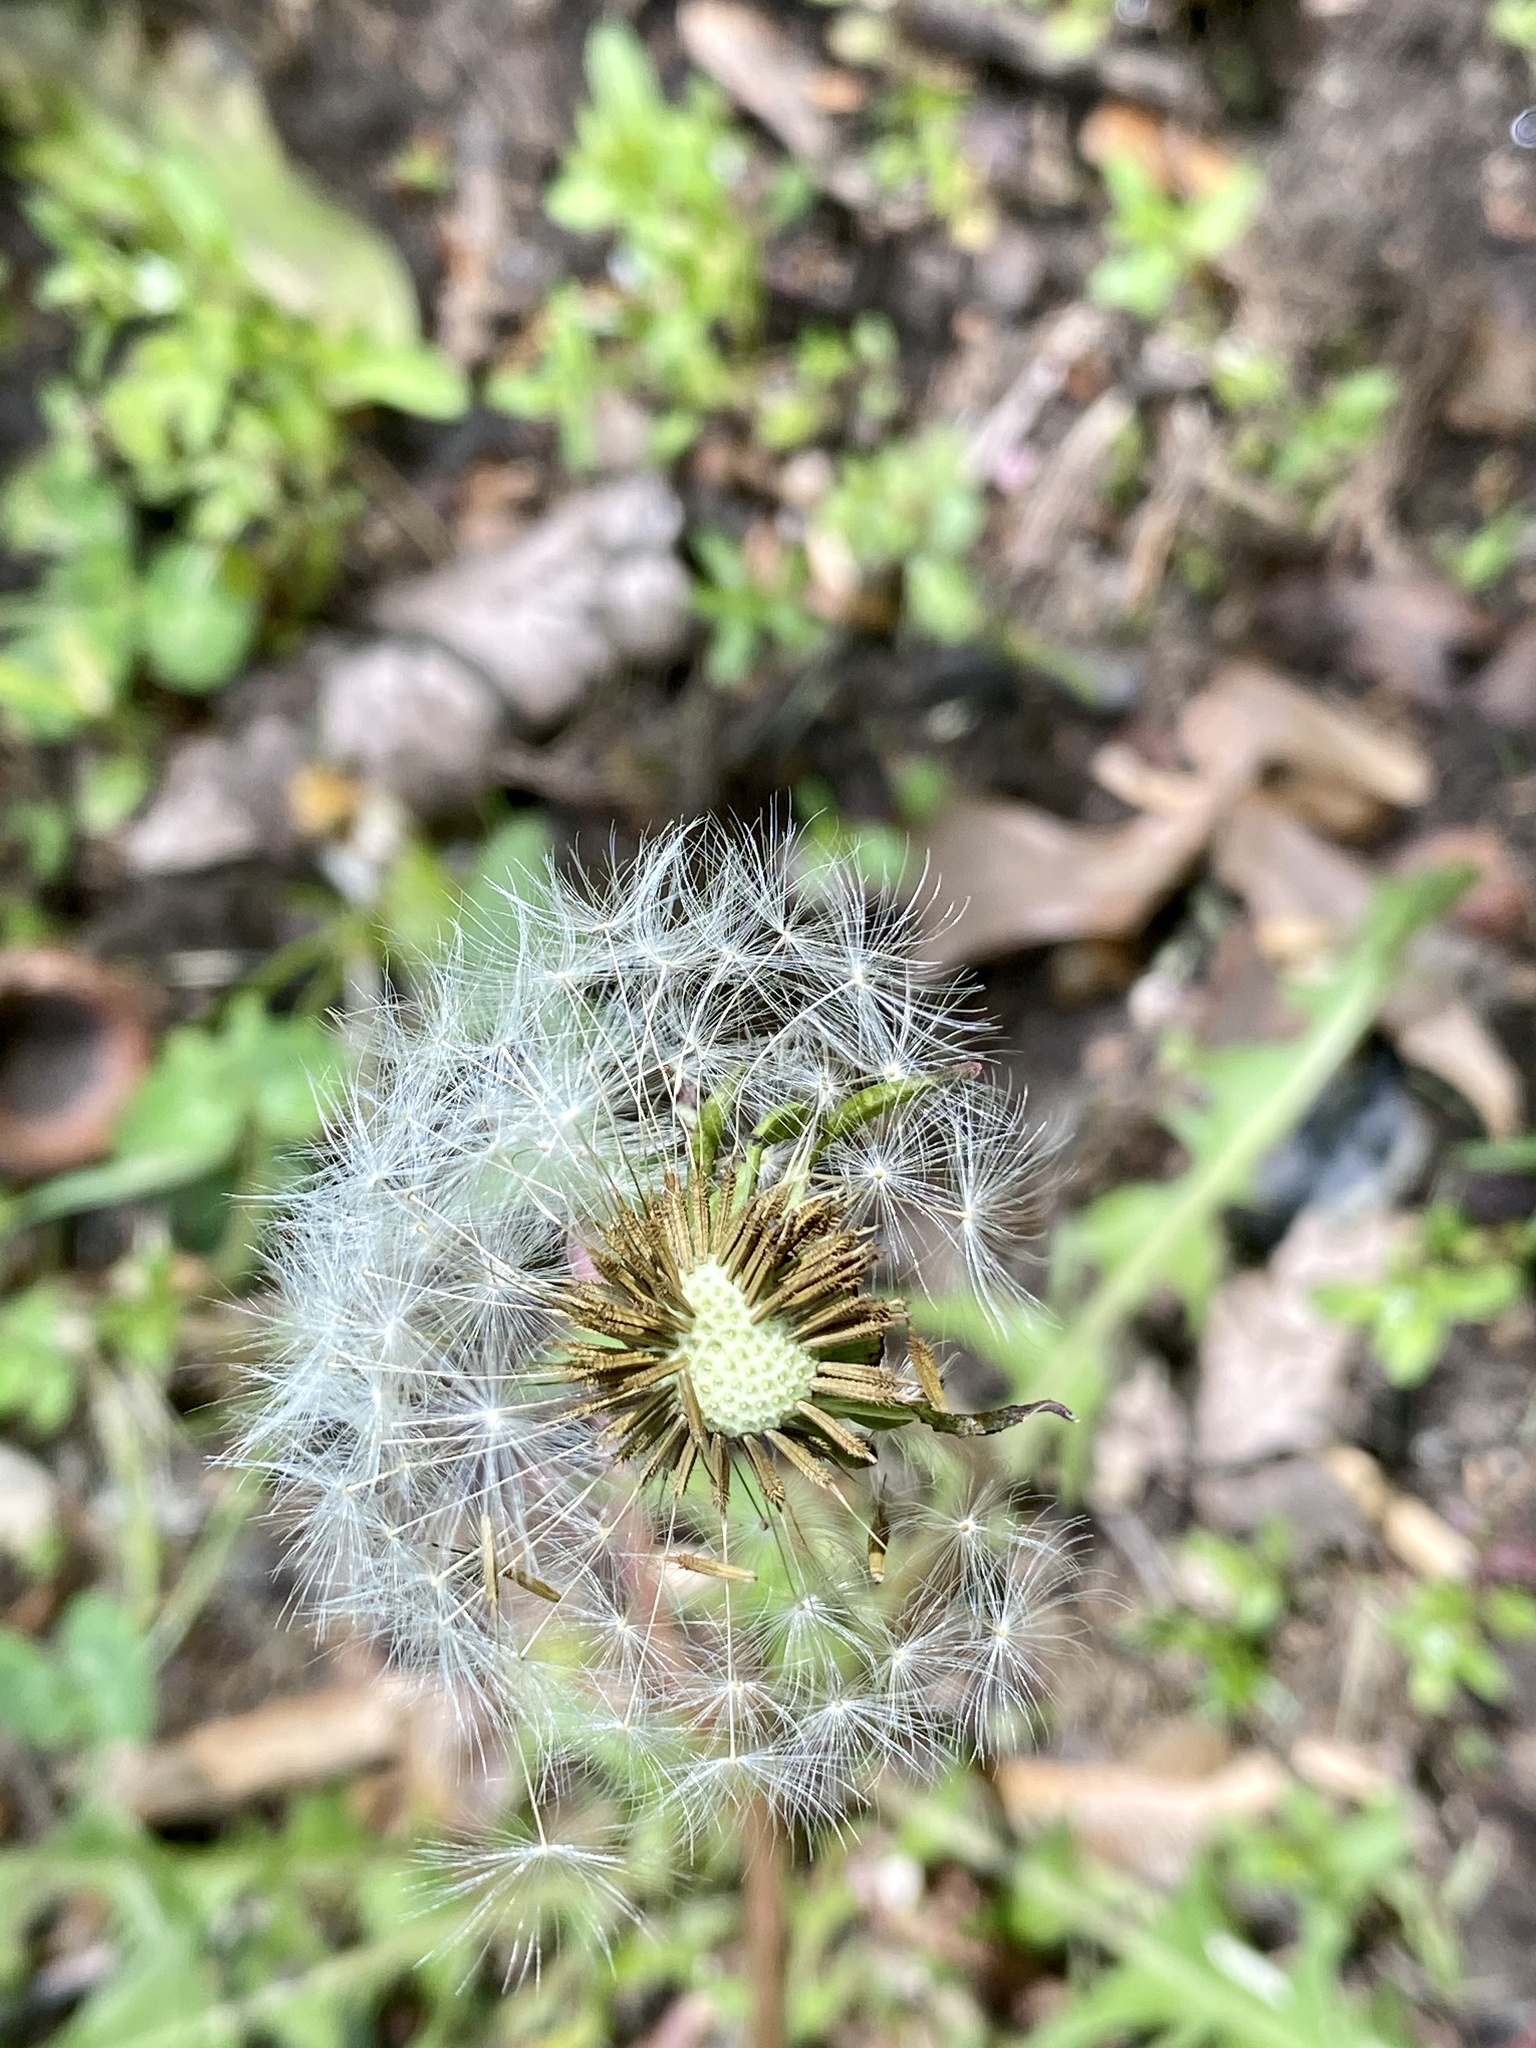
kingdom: Plantae
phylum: Tracheophyta
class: Magnoliopsida
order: Asterales
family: Asteraceae
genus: Taraxacum
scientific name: Taraxacum officinale
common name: Common dandelion
